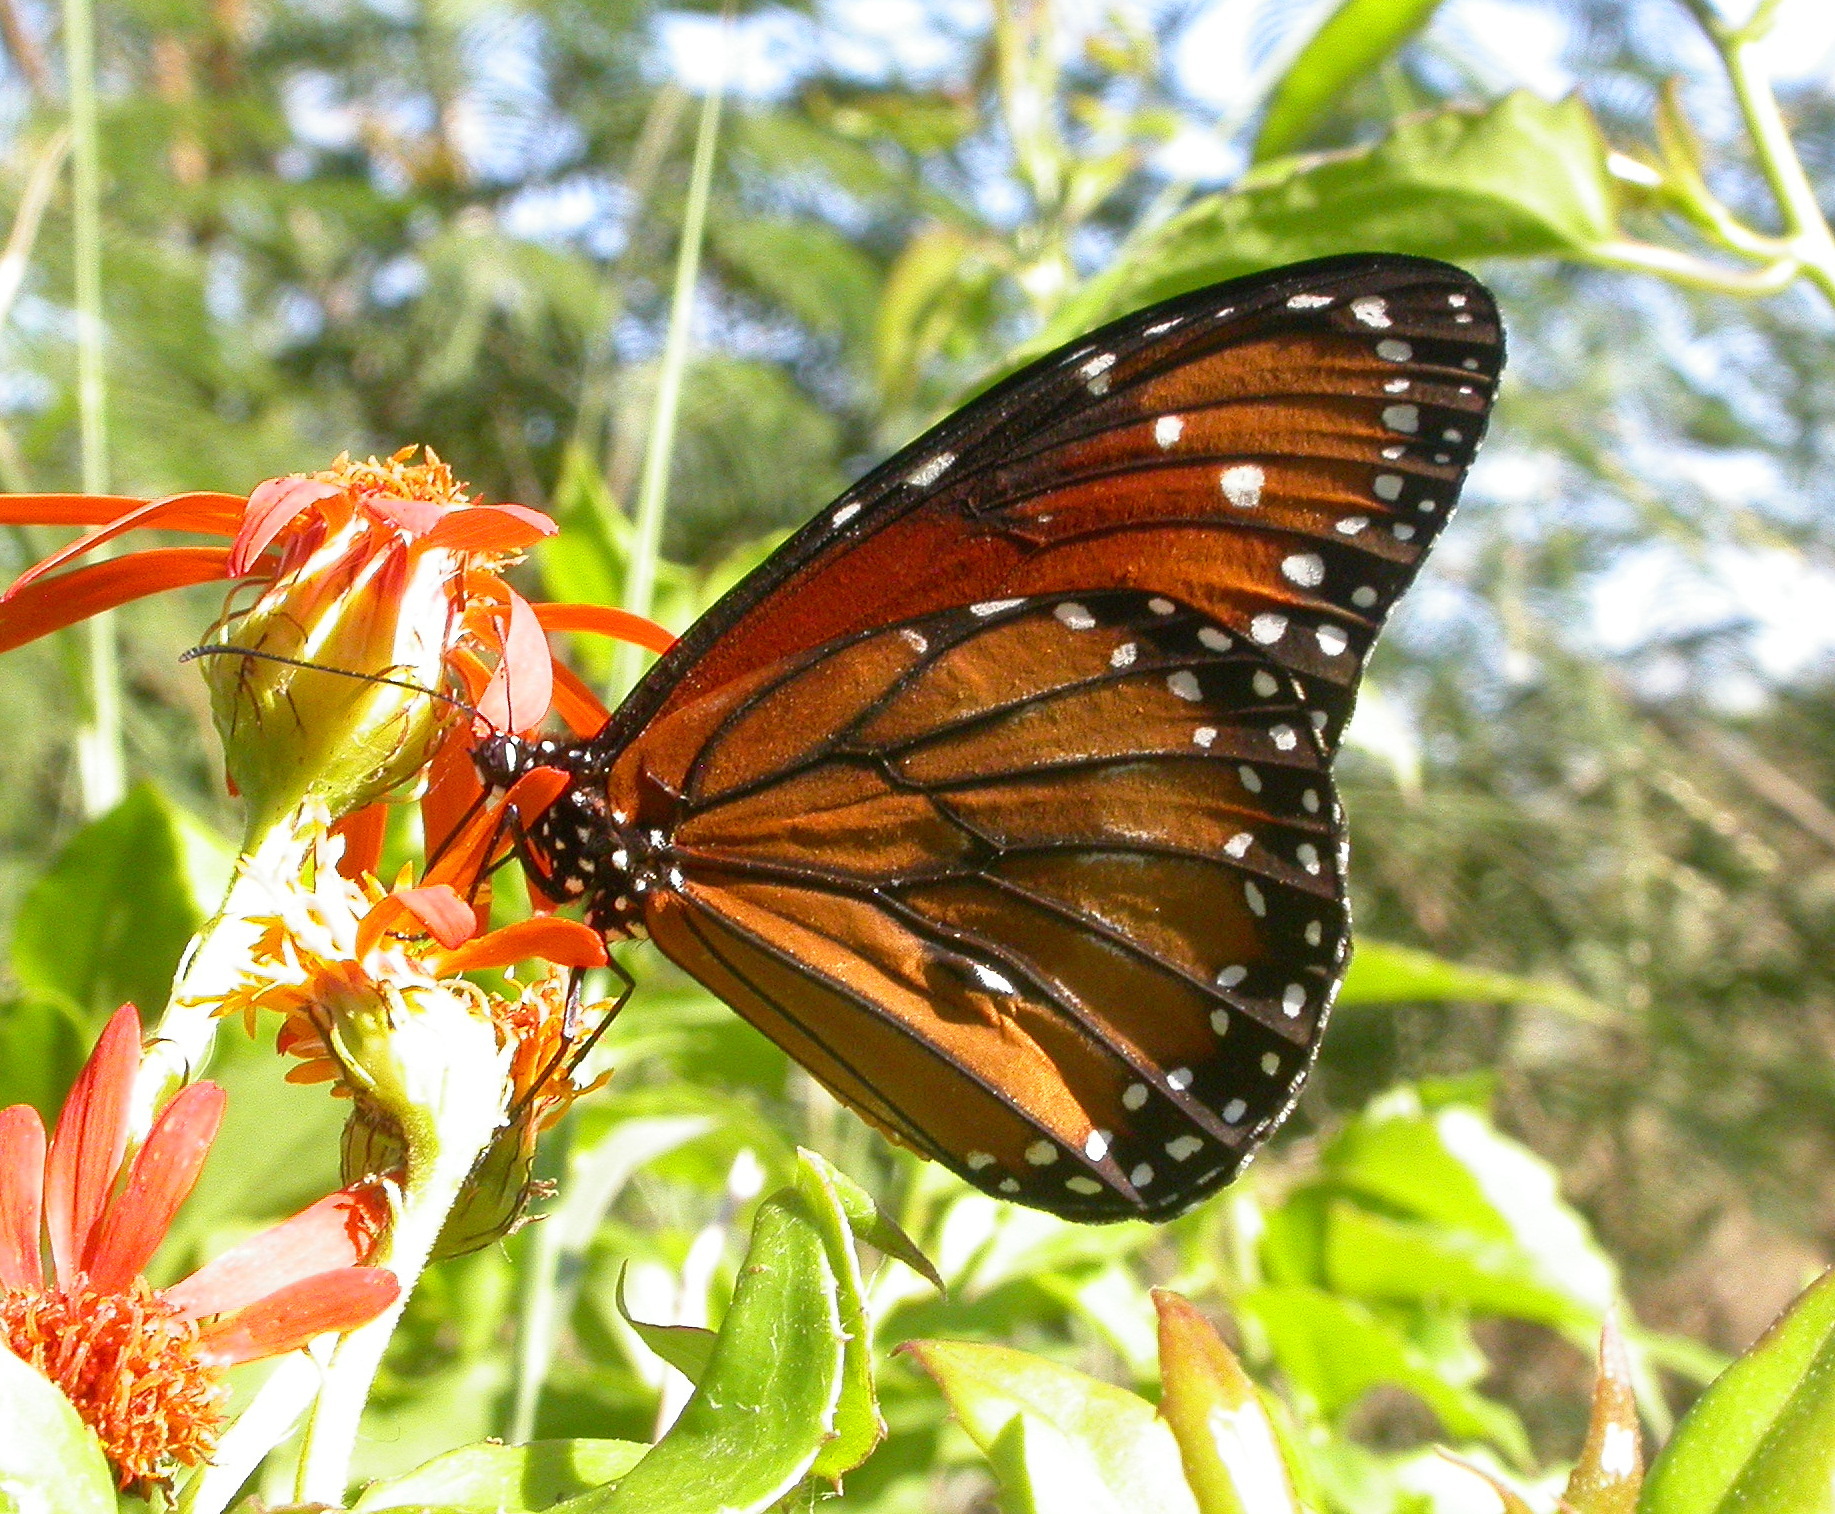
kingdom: Animalia
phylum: Arthropoda
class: Insecta
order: Lepidoptera
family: Nymphalidae
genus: Danaus
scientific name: Danaus eresimus
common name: Soldier
